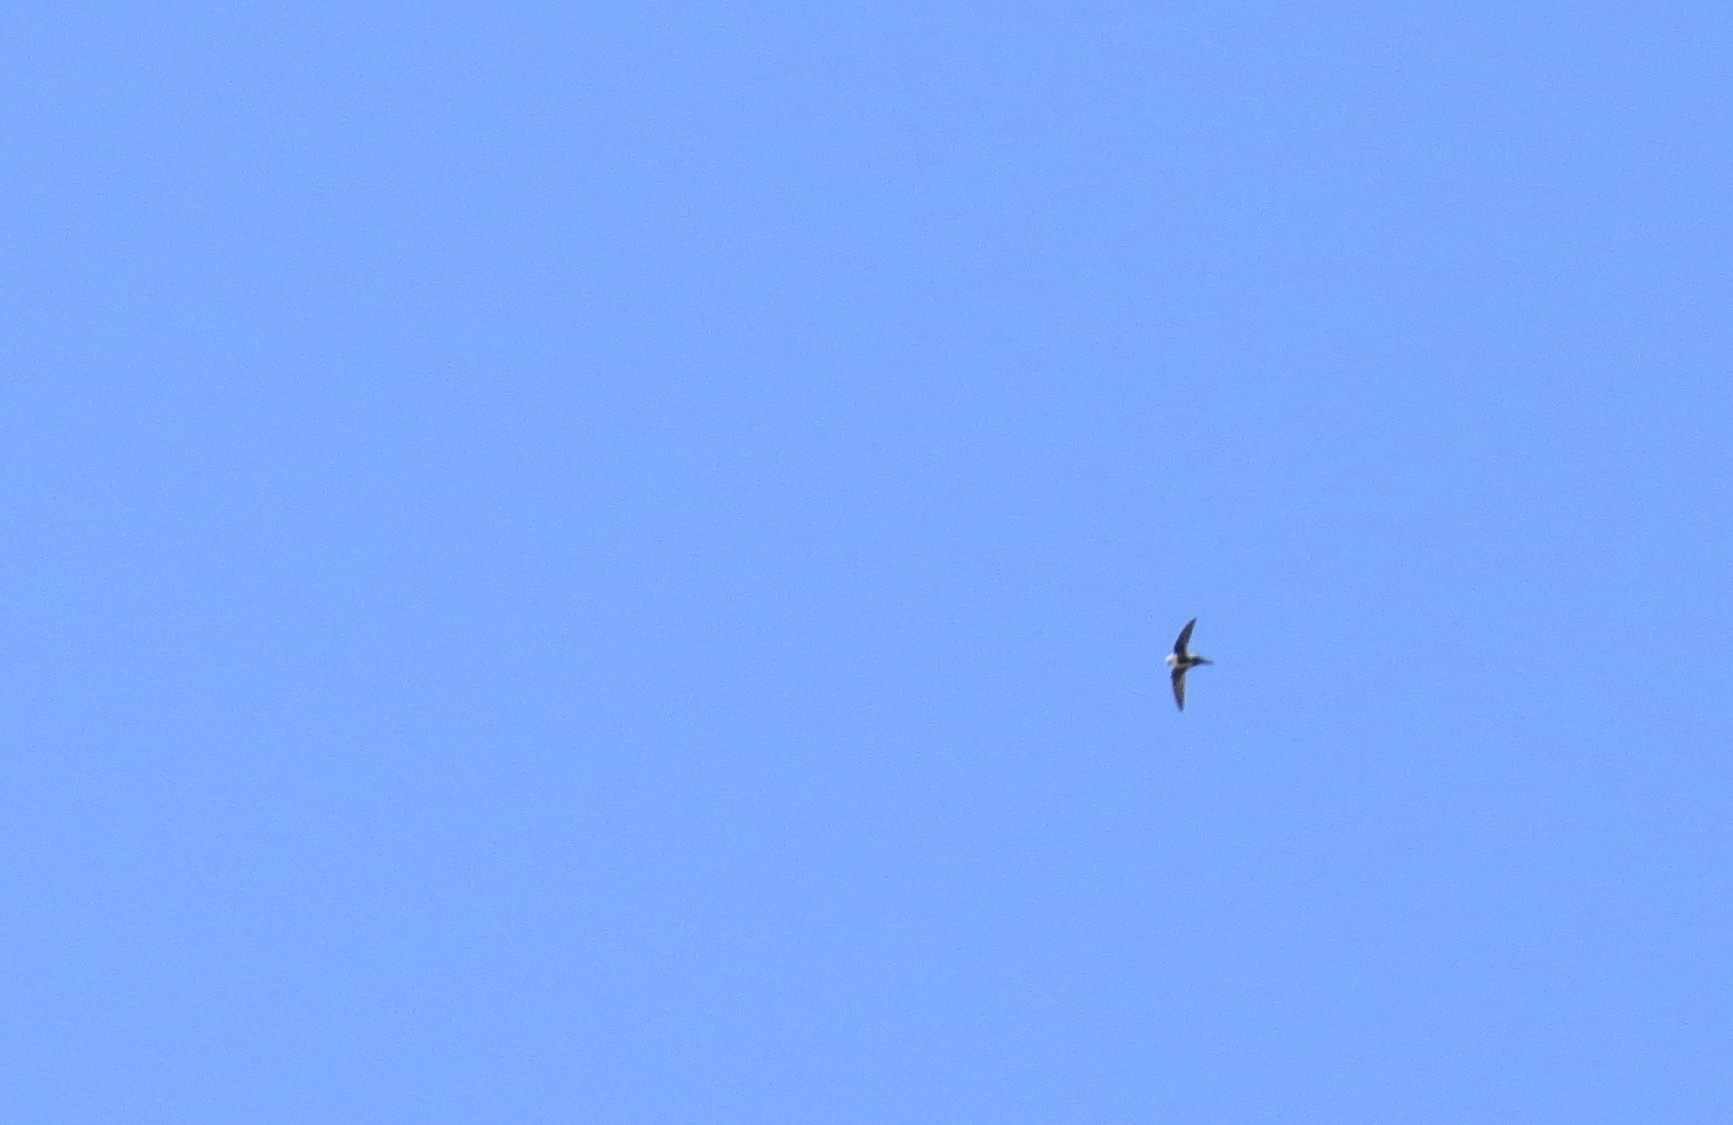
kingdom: Animalia
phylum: Chordata
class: Aves
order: Apodiformes
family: Apodidae
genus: Aeronautes
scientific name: Aeronautes saxatalis
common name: White-throated swift
